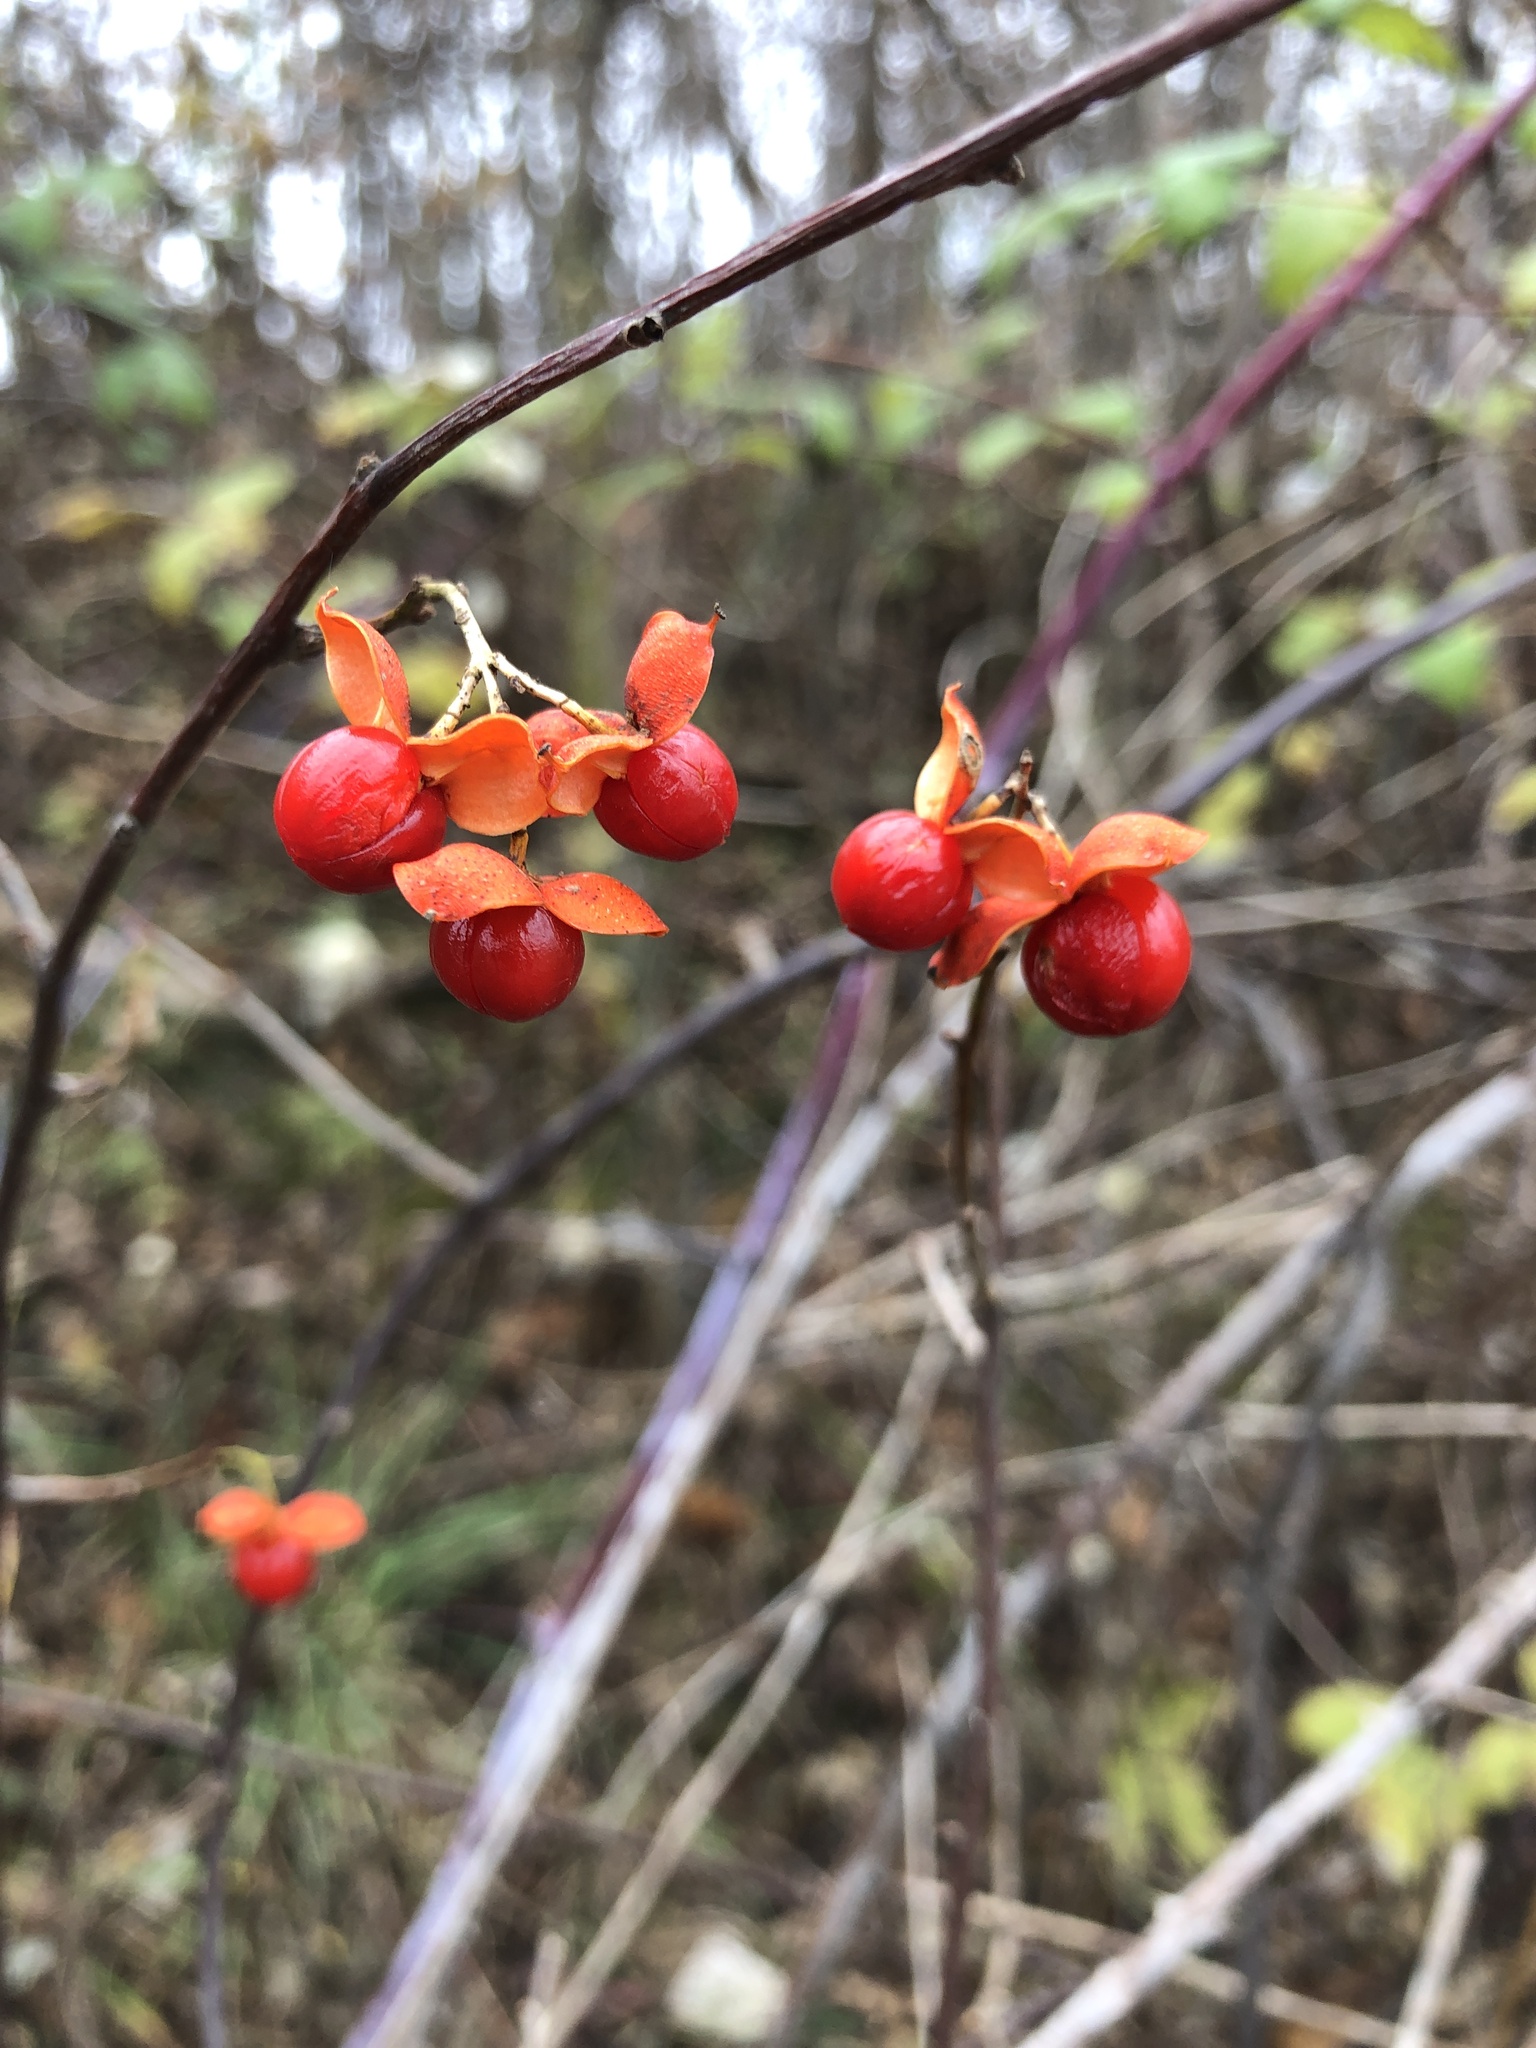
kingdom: Plantae
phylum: Tracheophyta
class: Magnoliopsida
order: Celastrales
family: Celastraceae
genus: Celastrus
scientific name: Celastrus scandens
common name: American bittersweet
